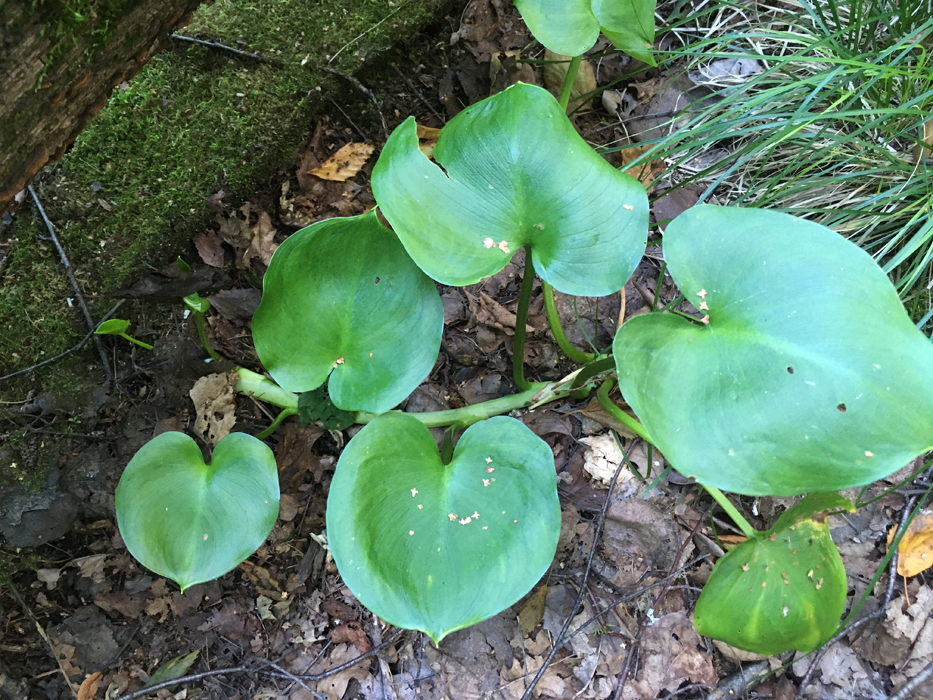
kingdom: Plantae
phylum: Tracheophyta
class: Liliopsida
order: Alismatales
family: Araceae
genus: Calla
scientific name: Calla palustris
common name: Bog arum
